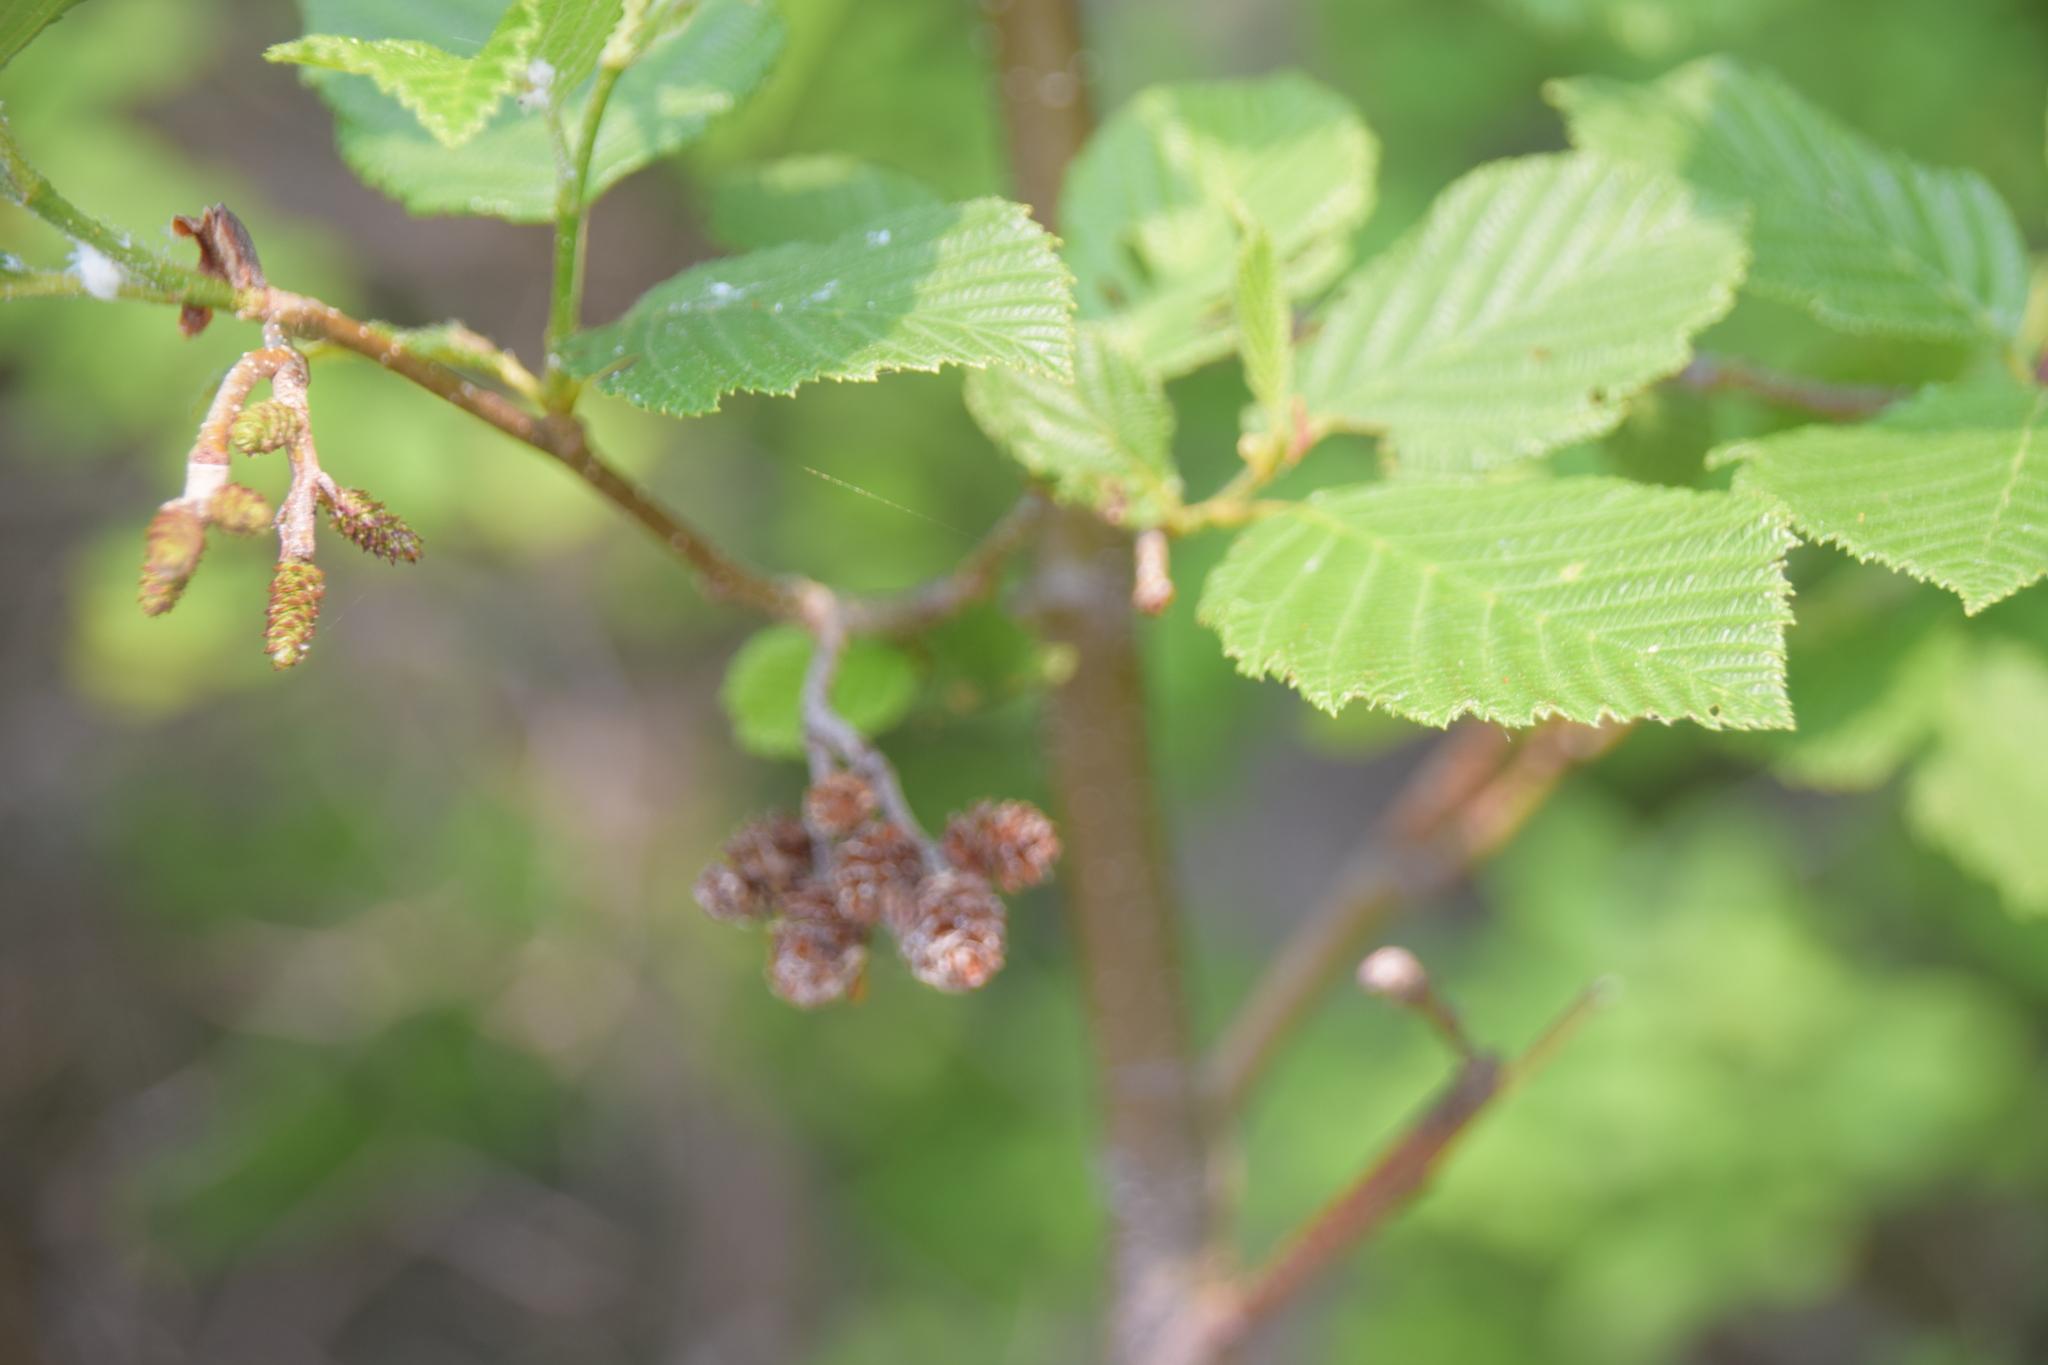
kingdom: Plantae
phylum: Tracheophyta
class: Magnoliopsida
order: Fagales
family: Betulaceae
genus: Alnus
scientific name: Alnus incana
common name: Grey alder
